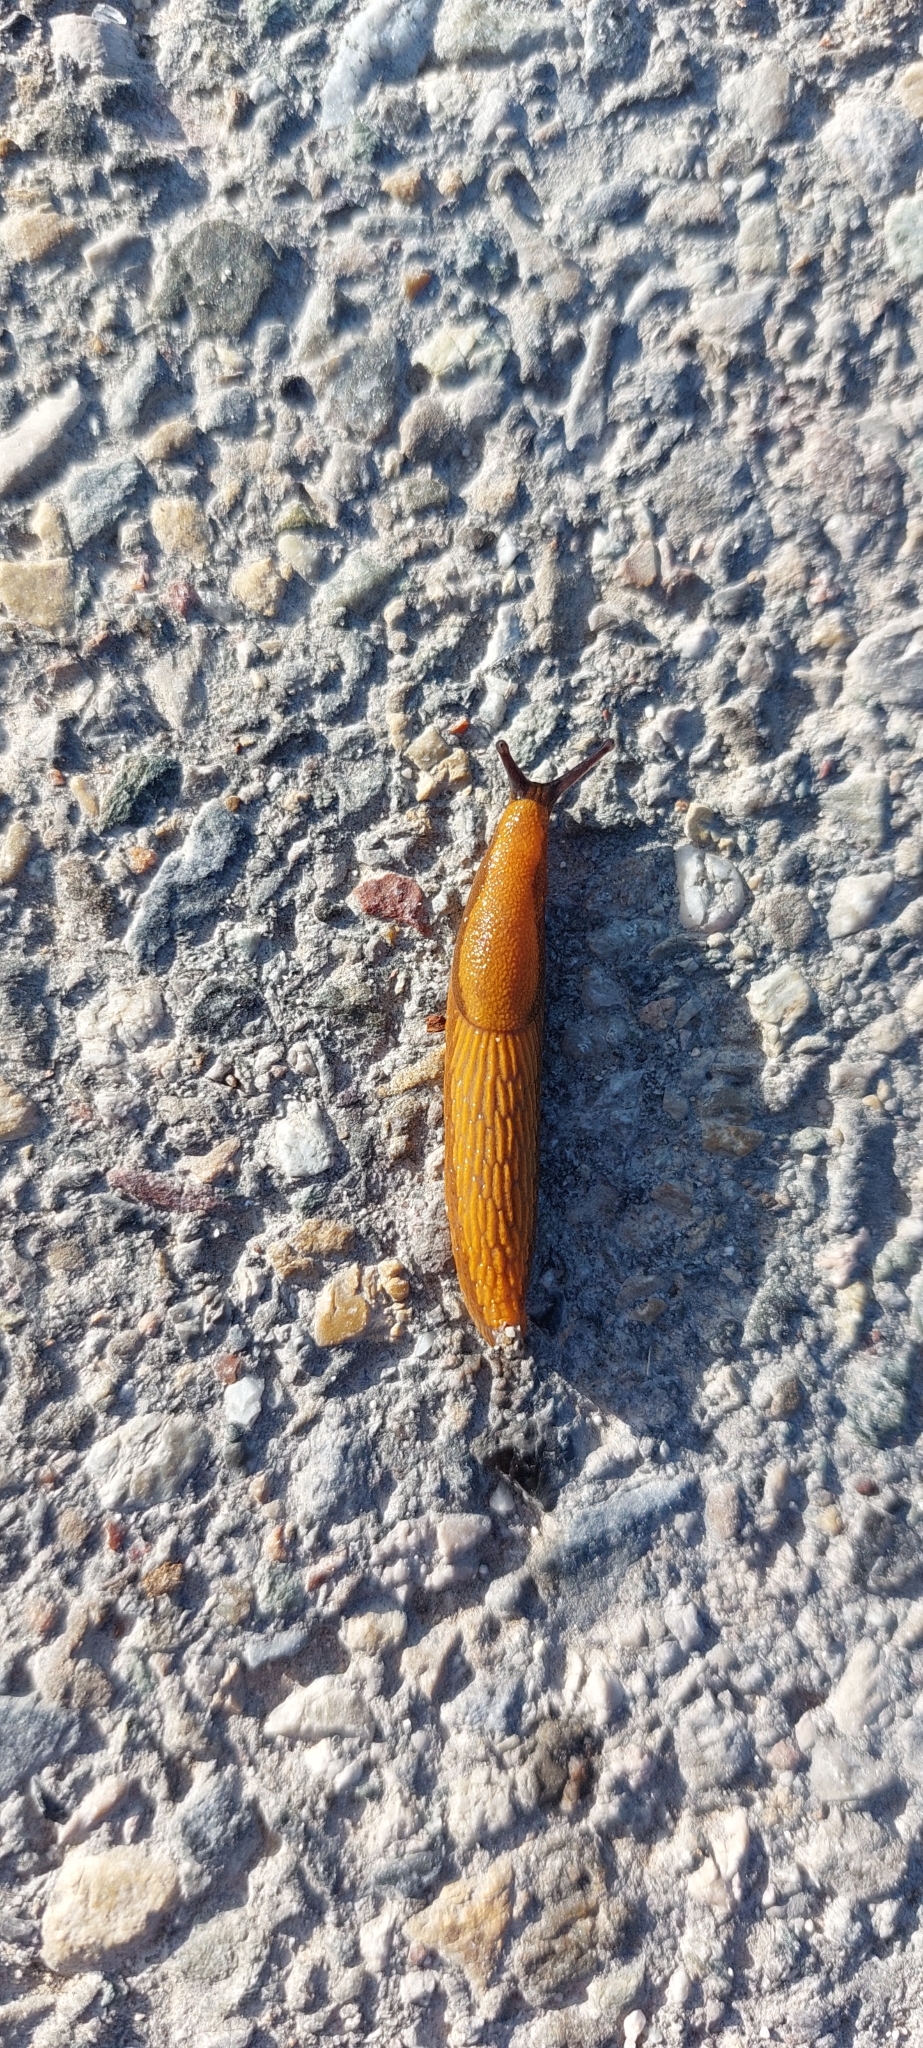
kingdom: Animalia
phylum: Mollusca
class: Gastropoda
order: Stylommatophora
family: Arionidae
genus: Arion
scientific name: Arion vulgaris
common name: Lusitanian slug
